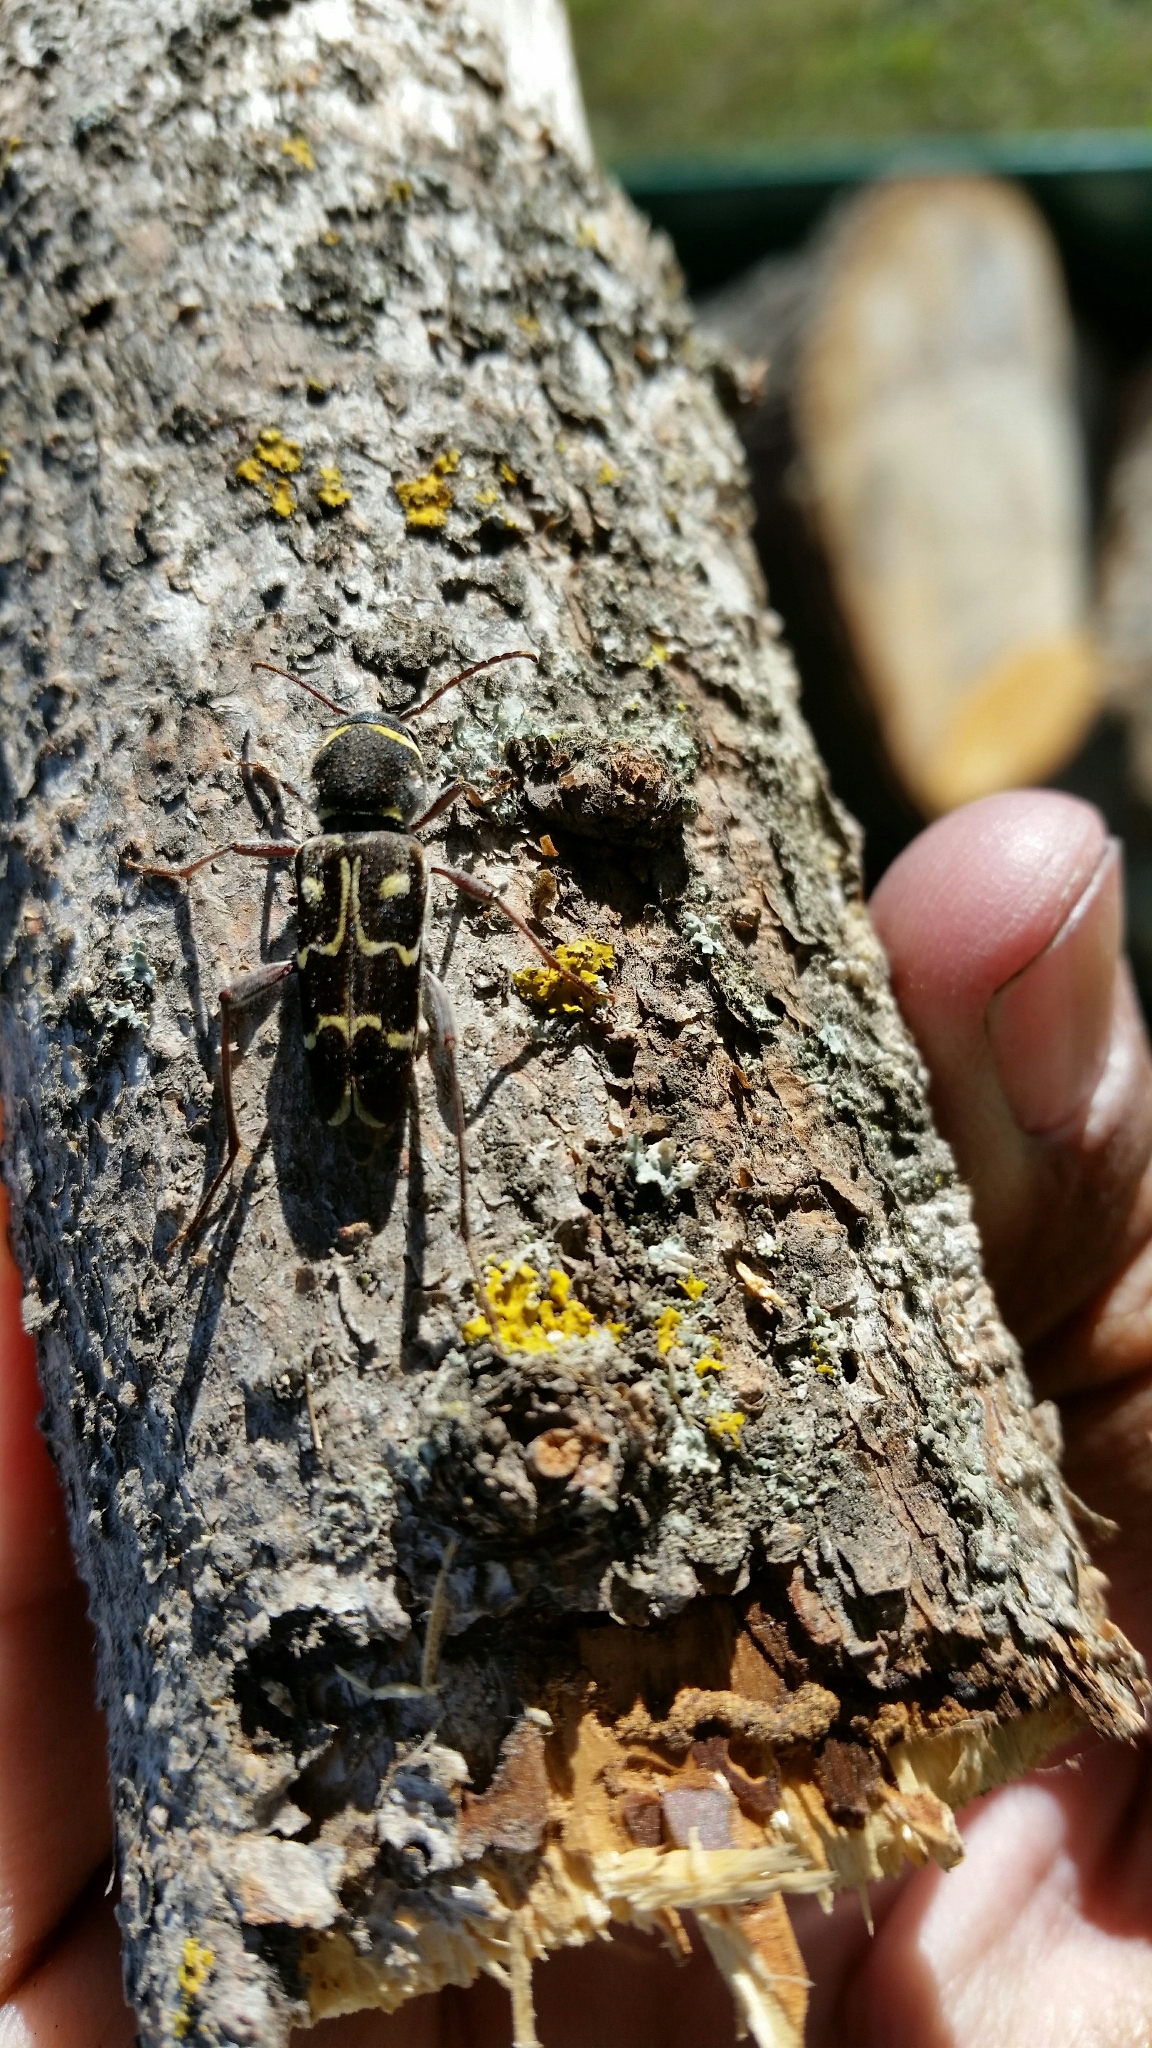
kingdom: Animalia
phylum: Arthropoda
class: Insecta
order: Coleoptera
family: Cerambycidae
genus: Xylotrechus
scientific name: Xylotrechus undulatus
